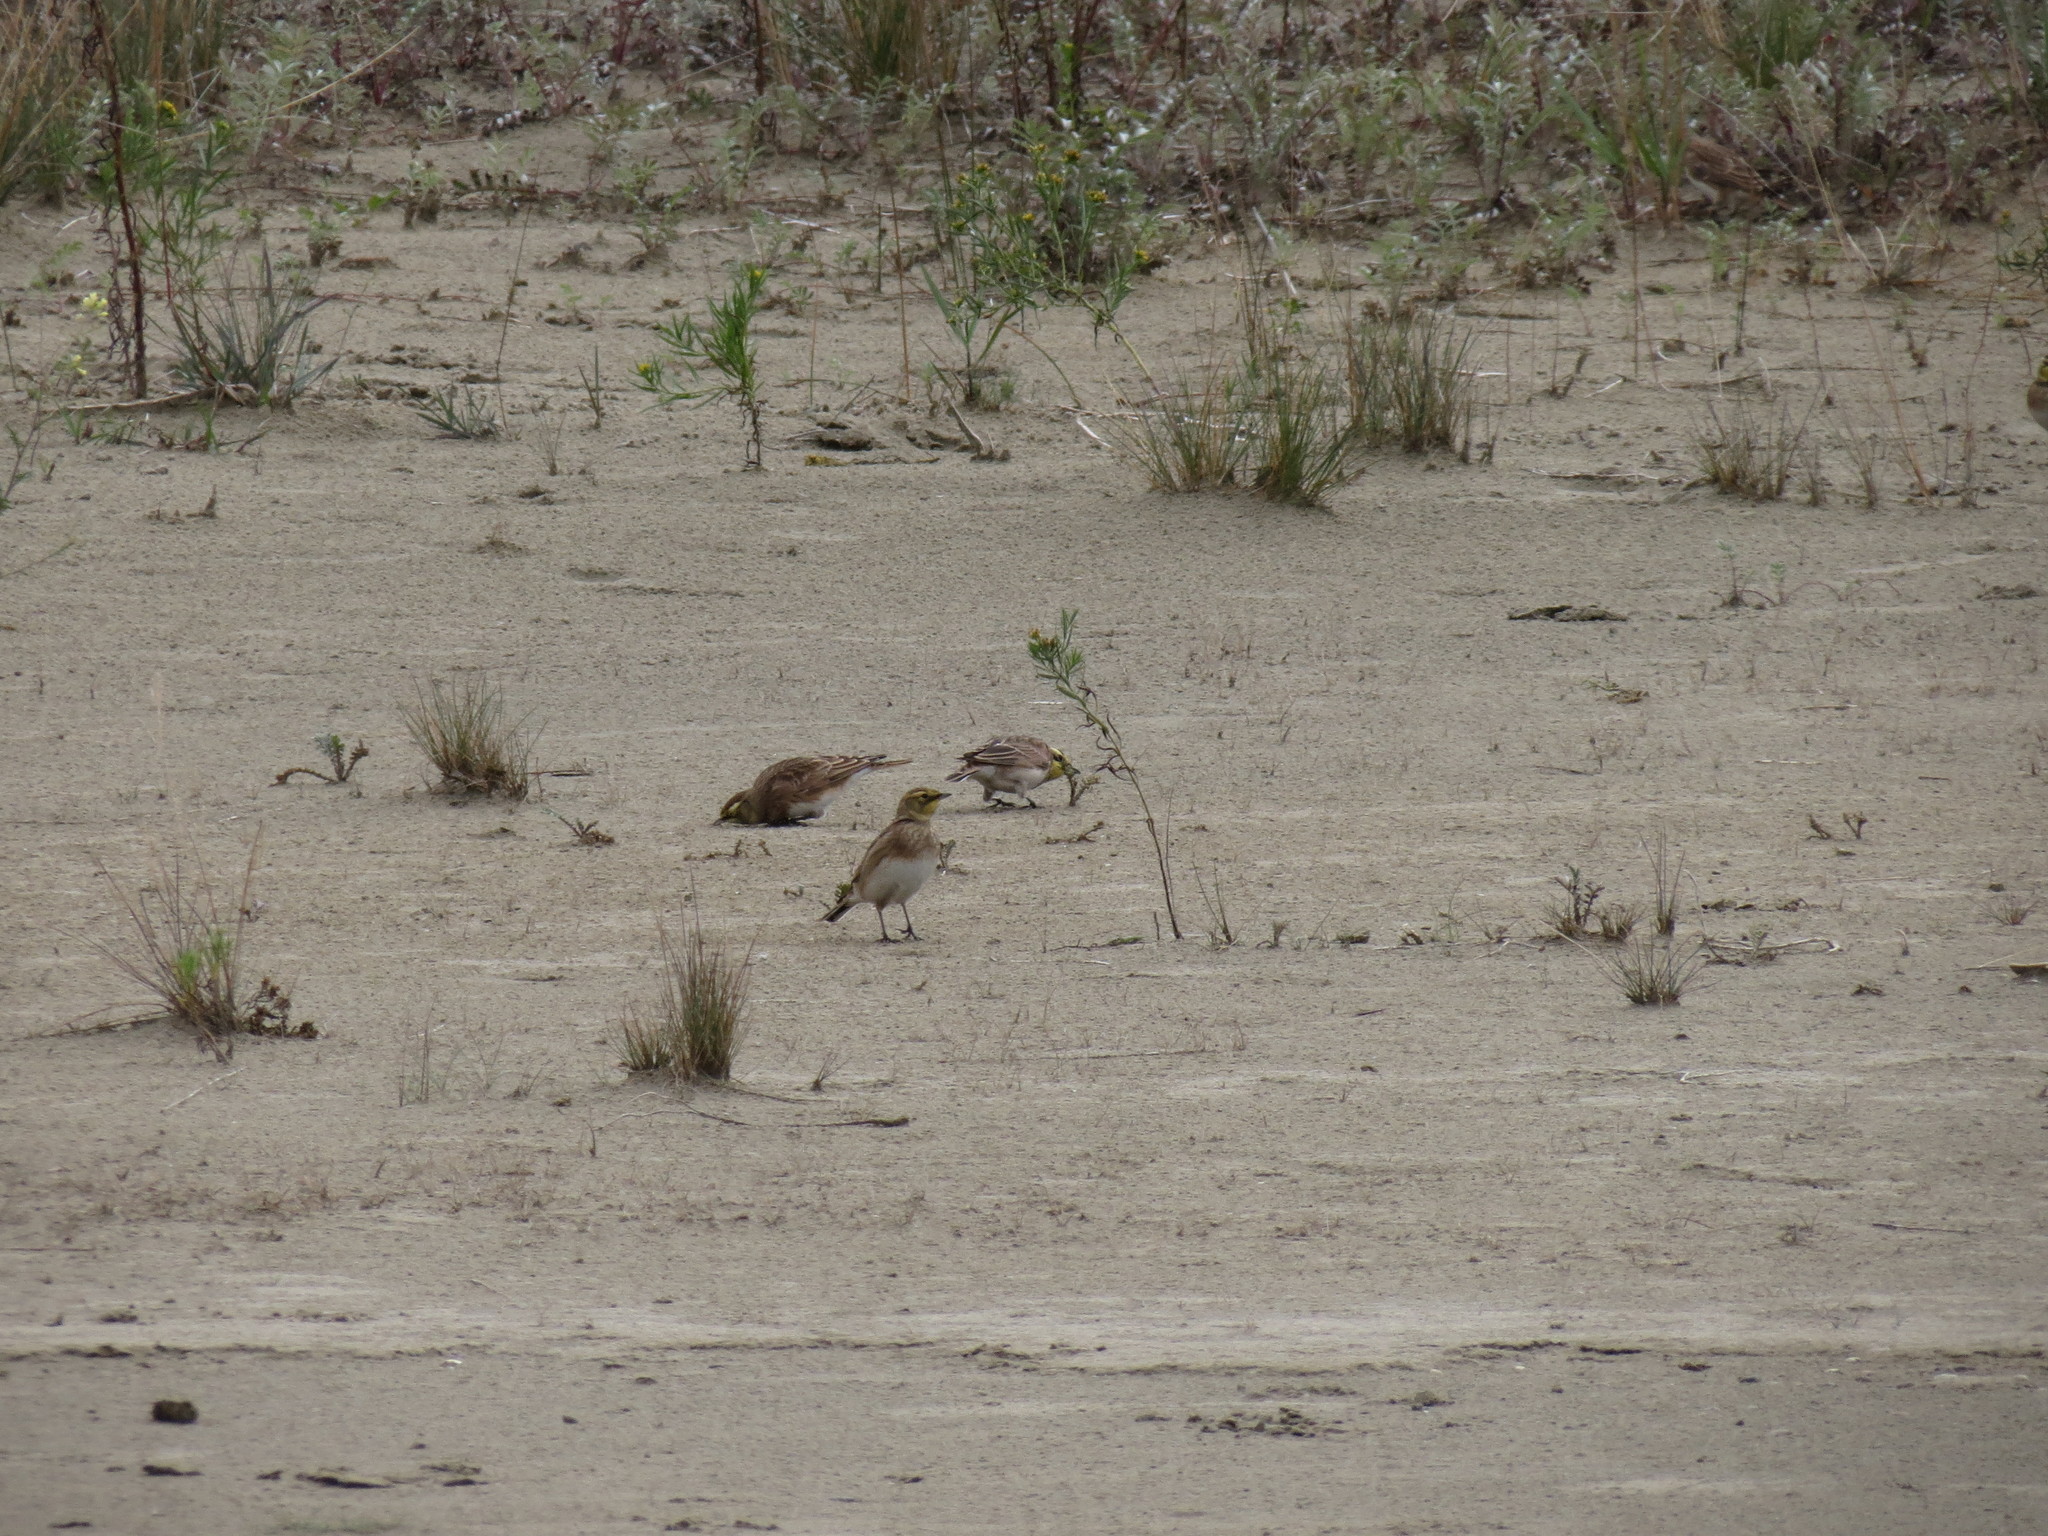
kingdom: Animalia
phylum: Chordata
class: Aves
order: Passeriformes
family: Alaudidae
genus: Eremophila
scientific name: Eremophila alpestris
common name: Horned lark
